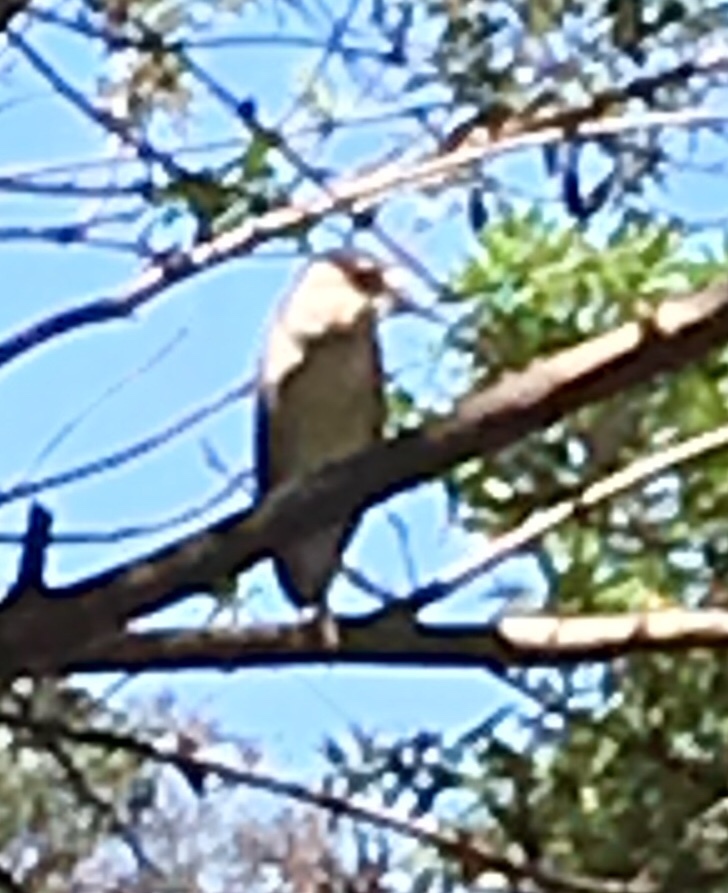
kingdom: Animalia
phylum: Chordata
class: Aves
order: Pelecaniformes
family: Ardeidae
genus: Nycticorax
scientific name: Nycticorax nycticorax
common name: Black-crowned night heron
